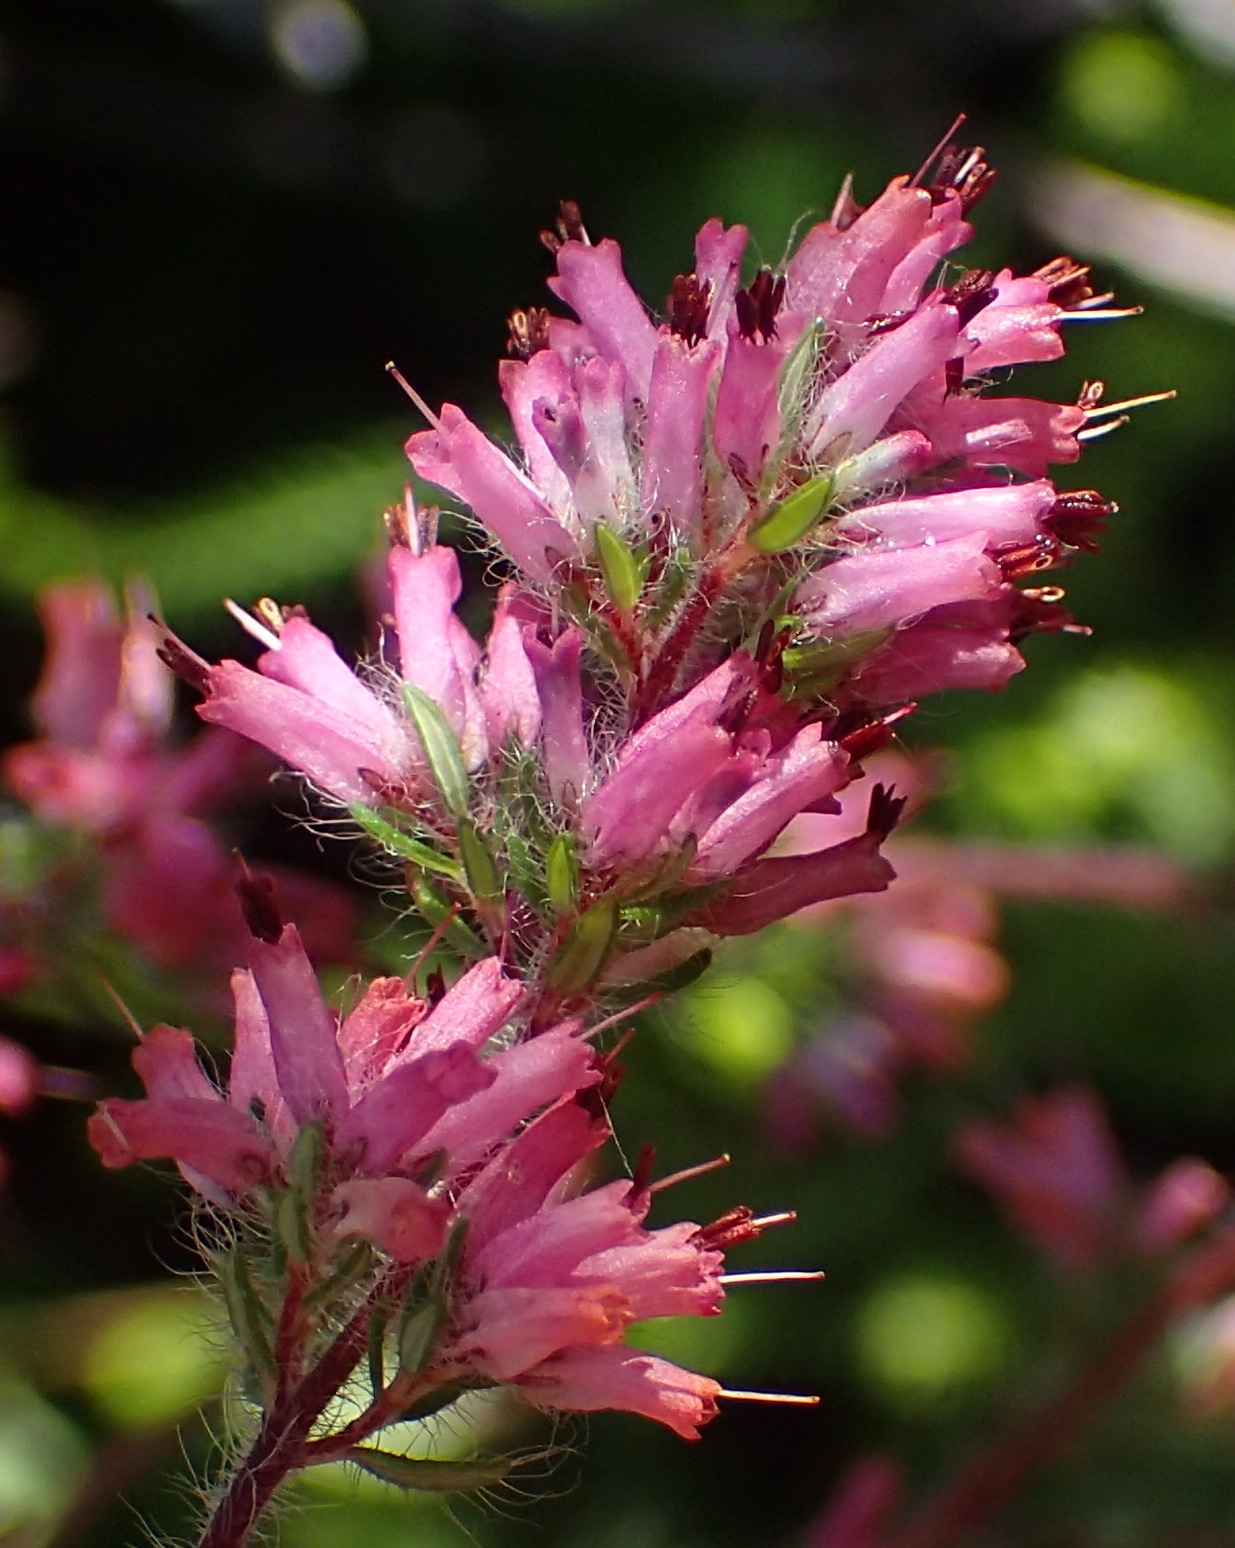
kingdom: Plantae
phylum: Tracheophyta
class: Magnoliopsida
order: Ericales
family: Ericaceae
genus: Erica
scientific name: Erica longimontana
